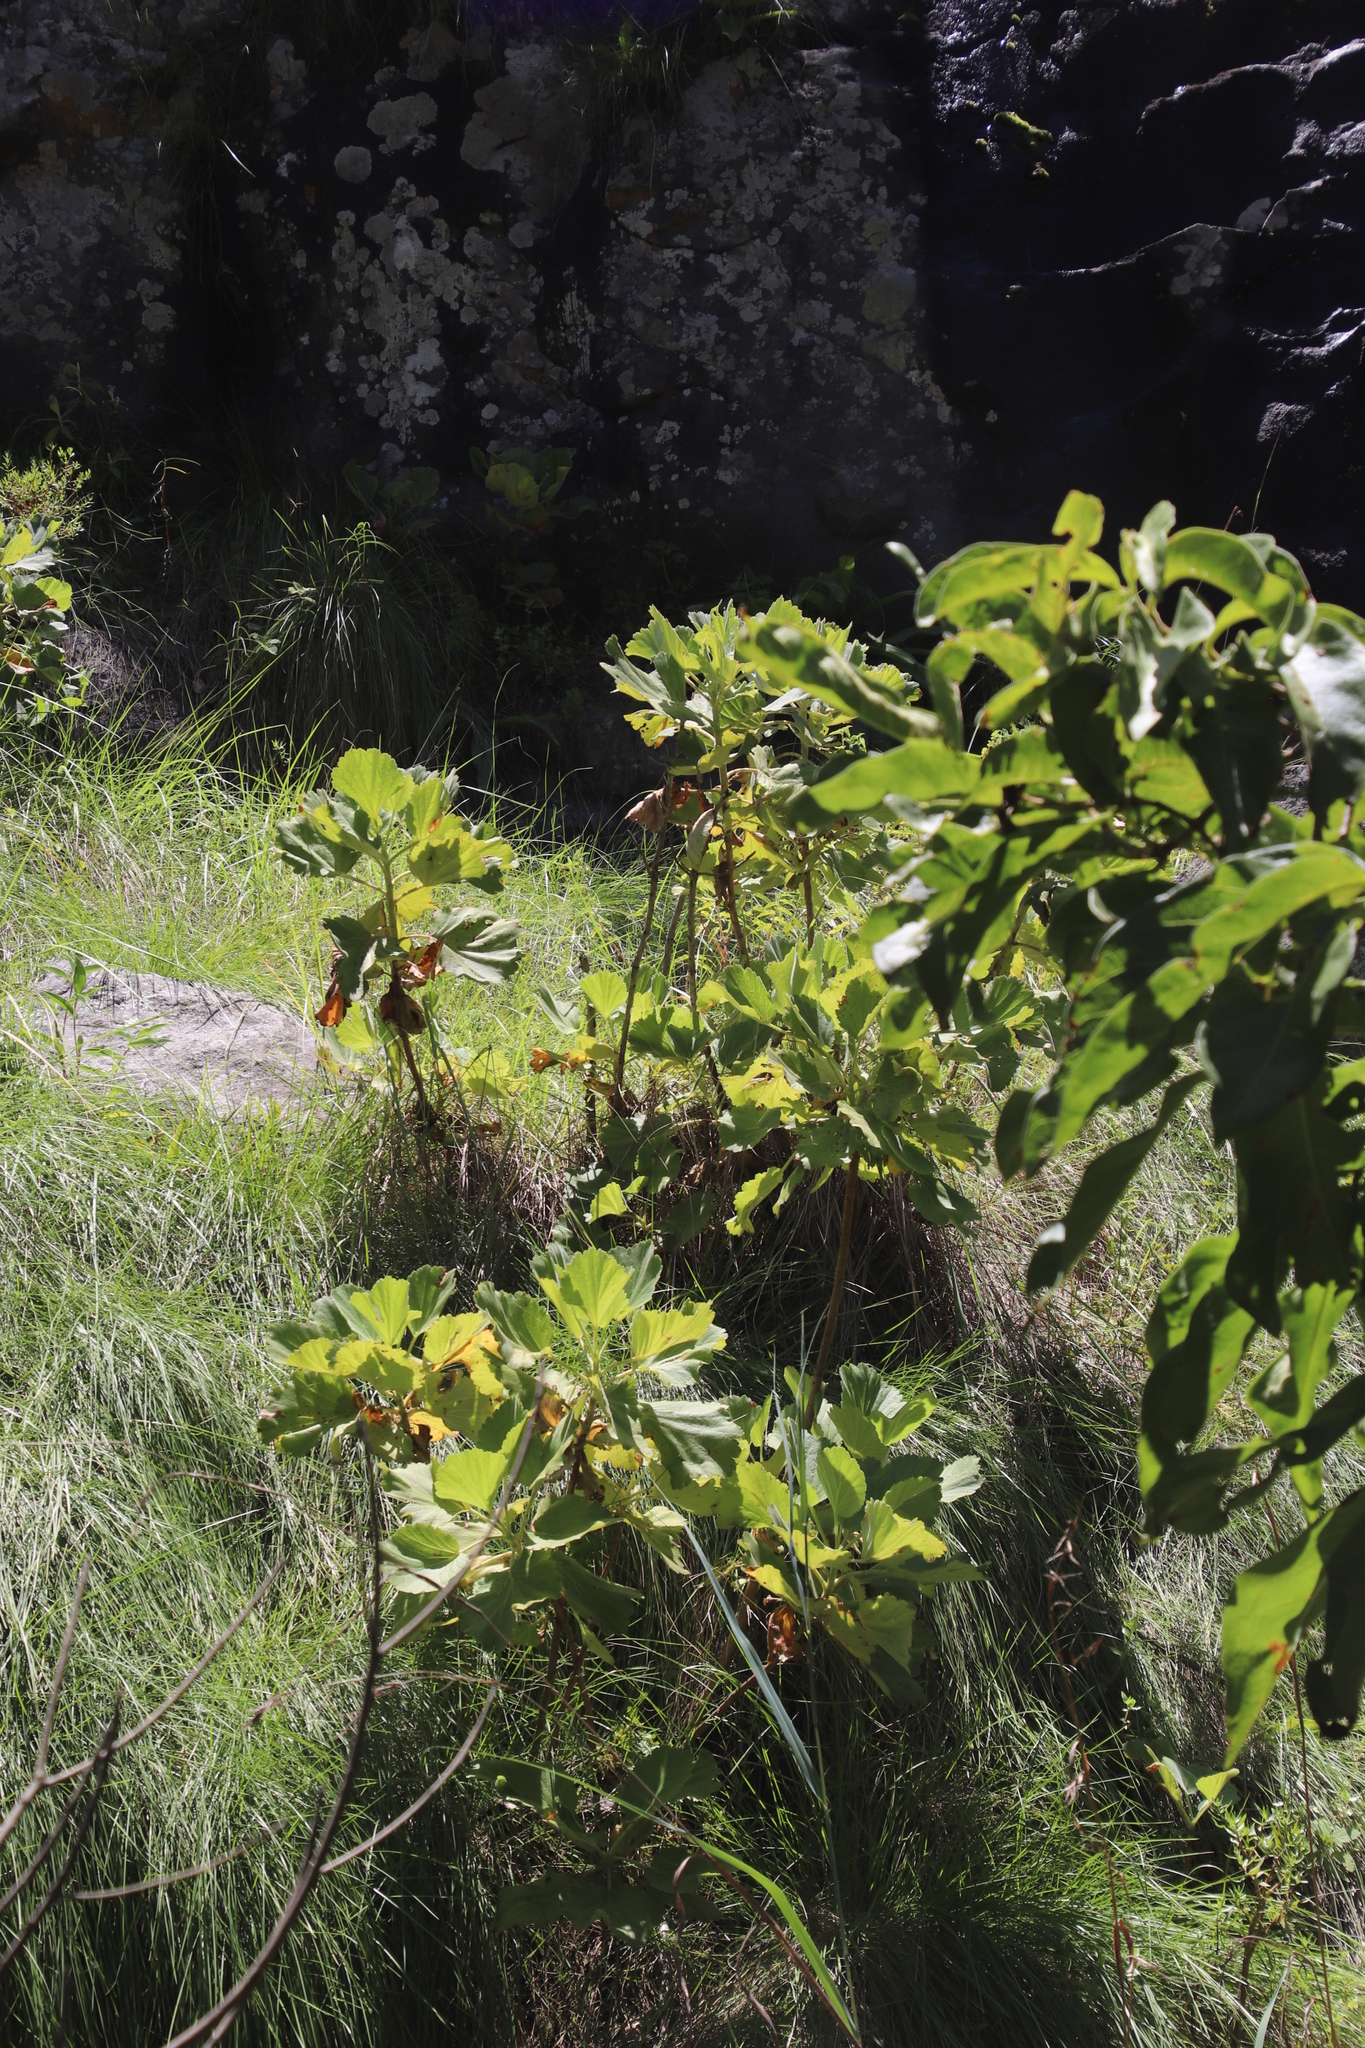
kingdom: Plantae
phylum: Tracheophyta
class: Magnoliopsida
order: Geraniales
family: Francoaceae
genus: Greyia
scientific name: Greyia radlkoferi
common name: Natal bottlebrush
